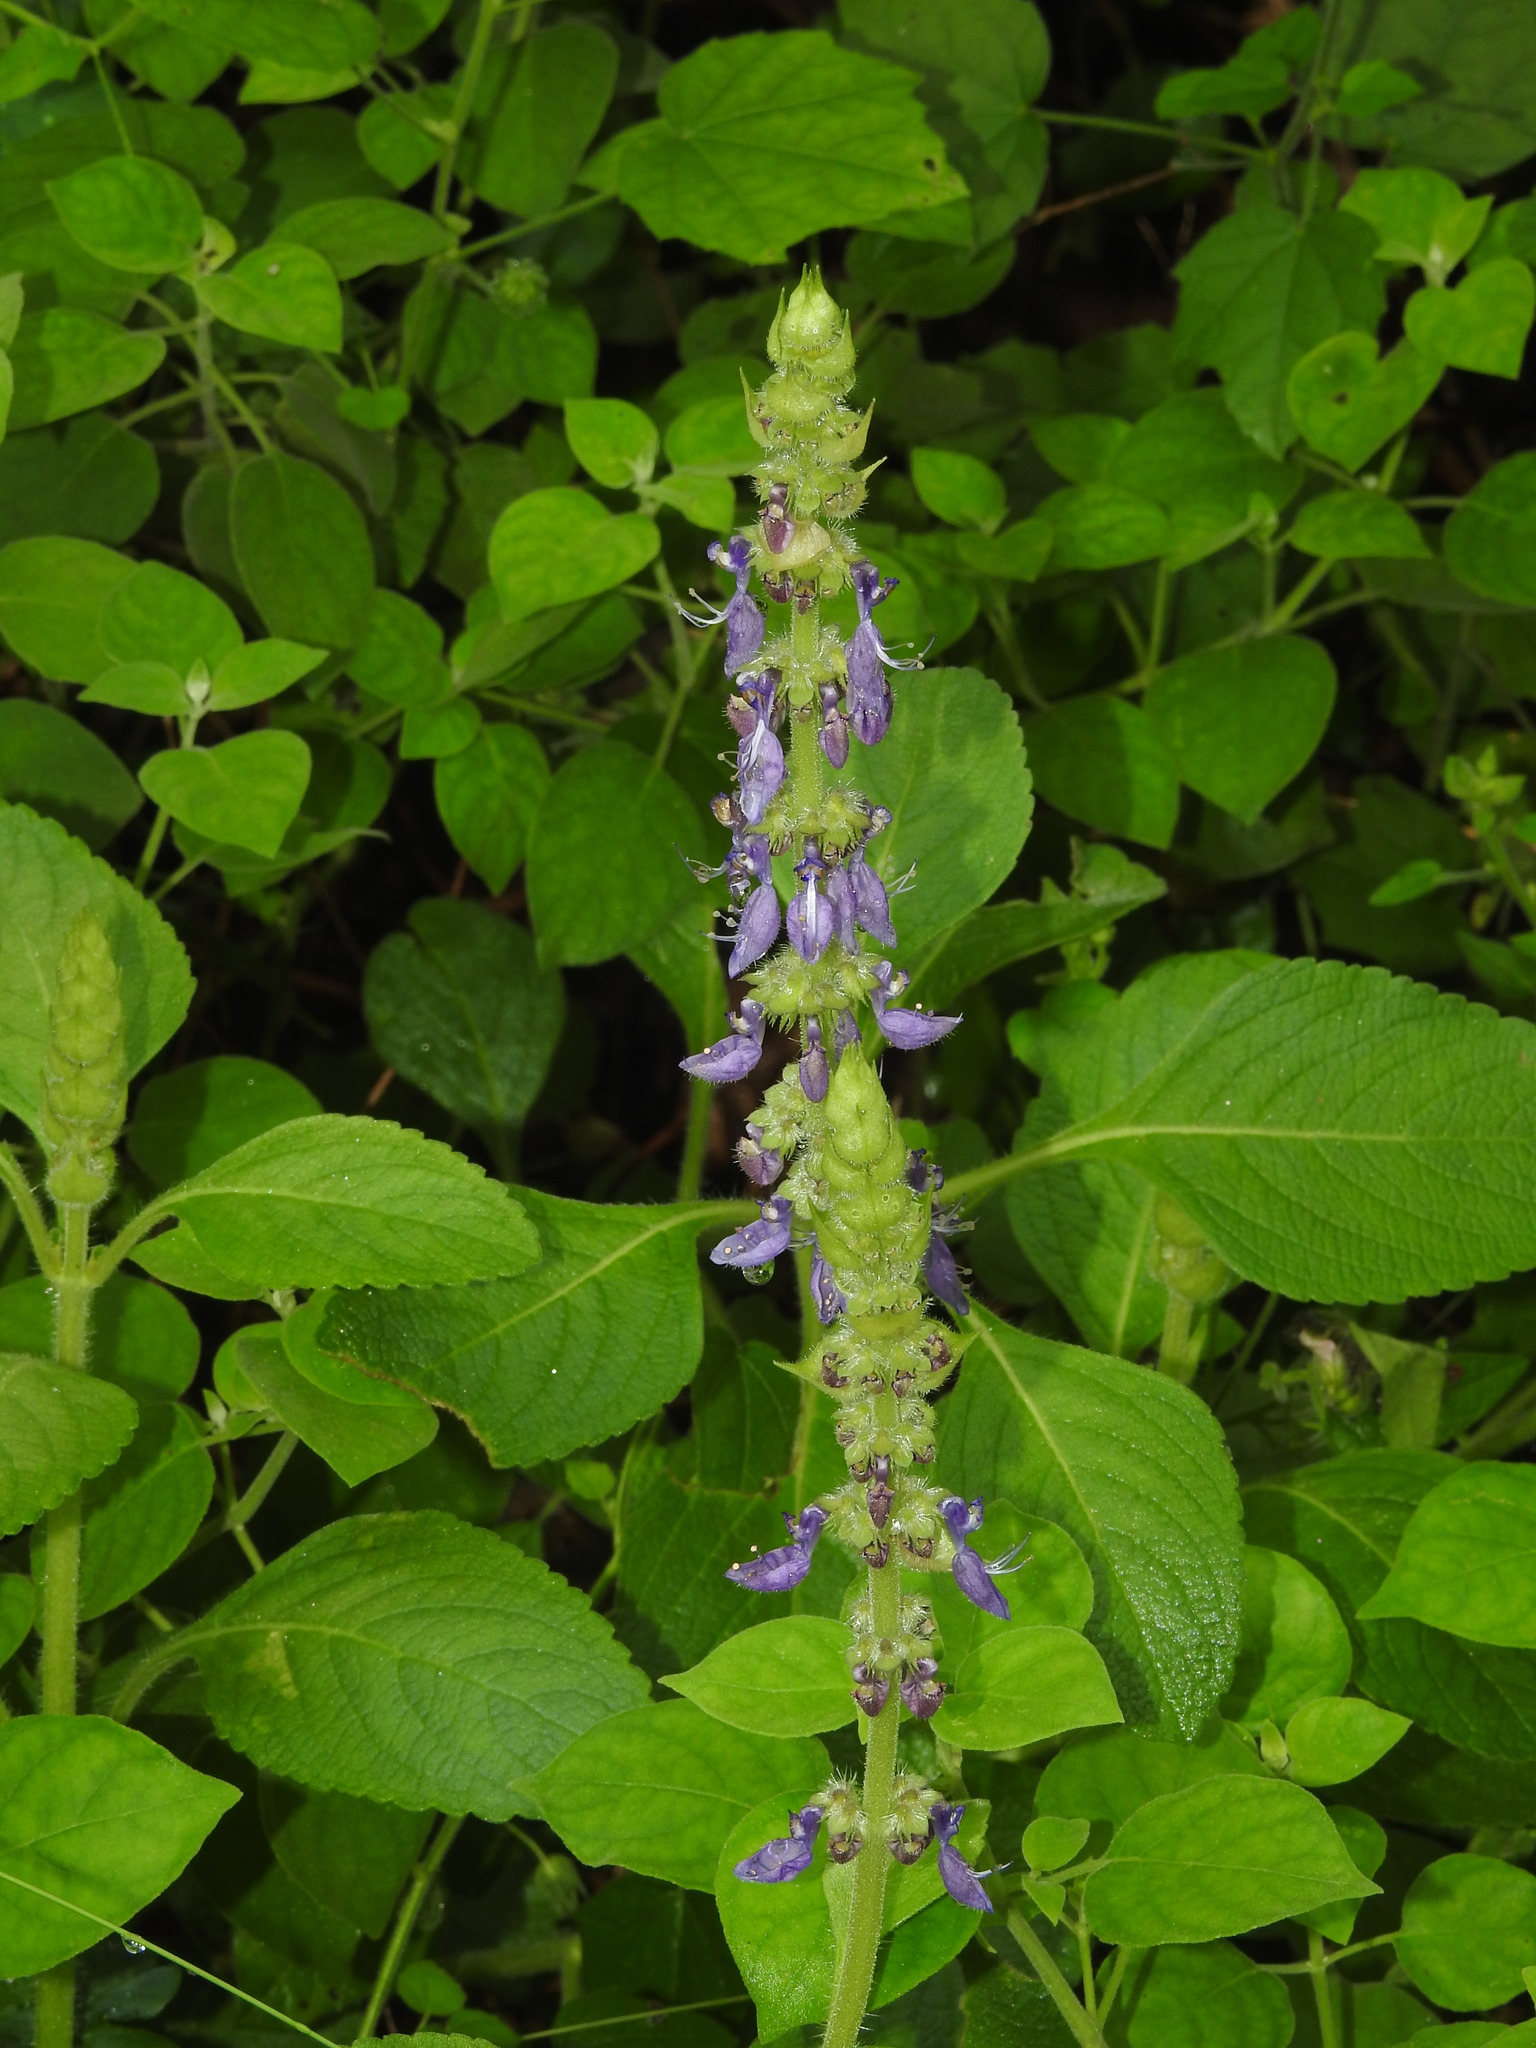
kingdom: Plantae
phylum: Tracheophyta
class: Magnoliopsida
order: Lamiales
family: Lamiaceae
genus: Coleus
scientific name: Coleus barbatus
